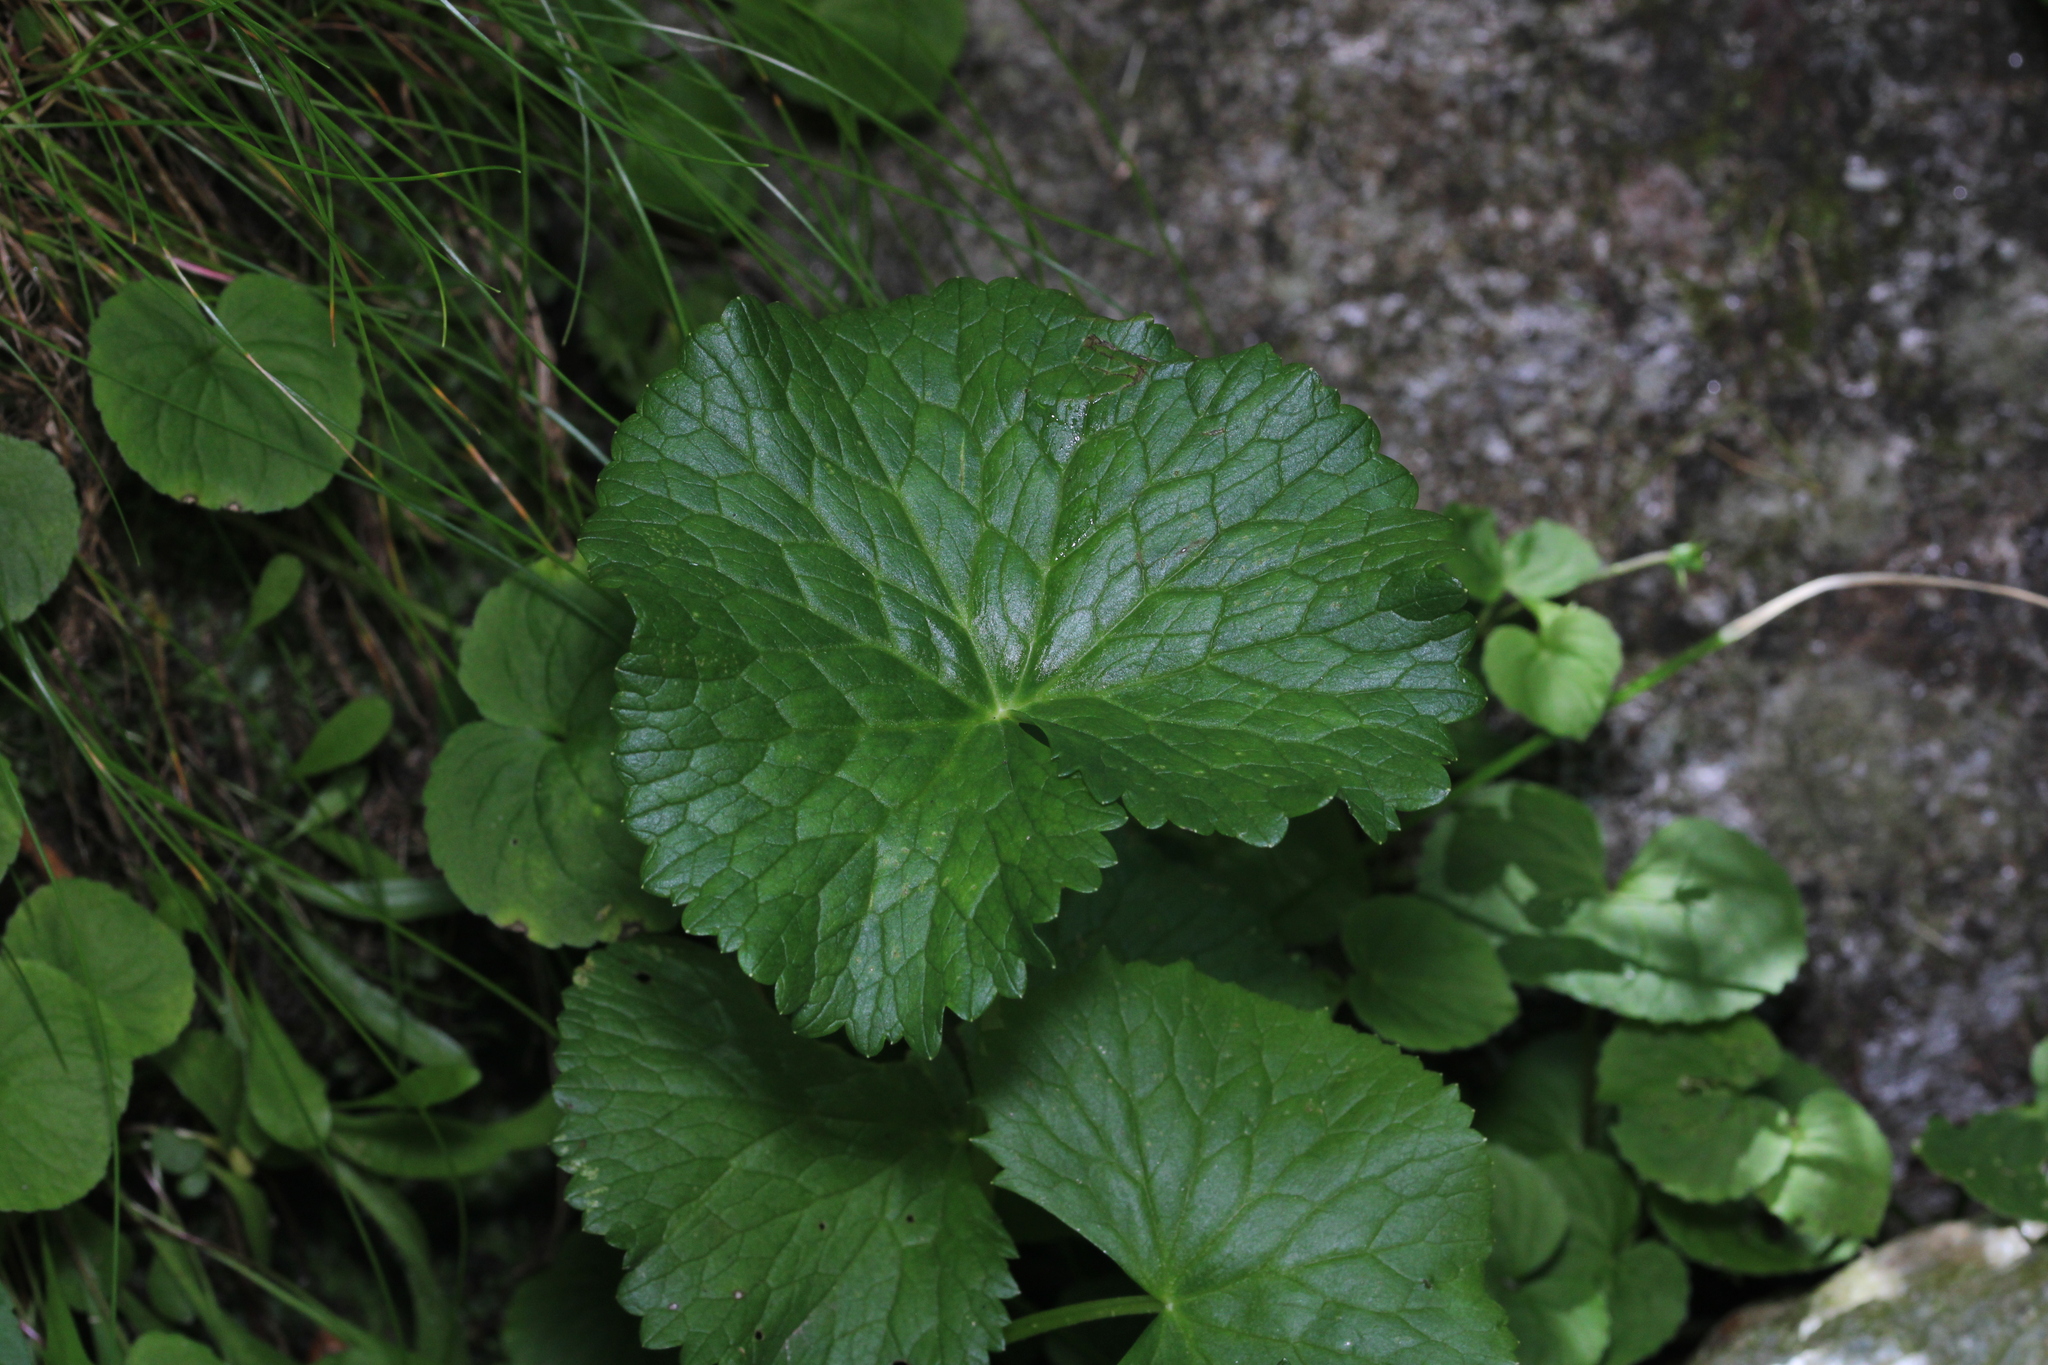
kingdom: Plantae
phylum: Tracheophyta
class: Magnoliopsida
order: Ranunculales
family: Ranunculaceae
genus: Caltha
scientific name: Caltha palustris
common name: Marsh marigold
